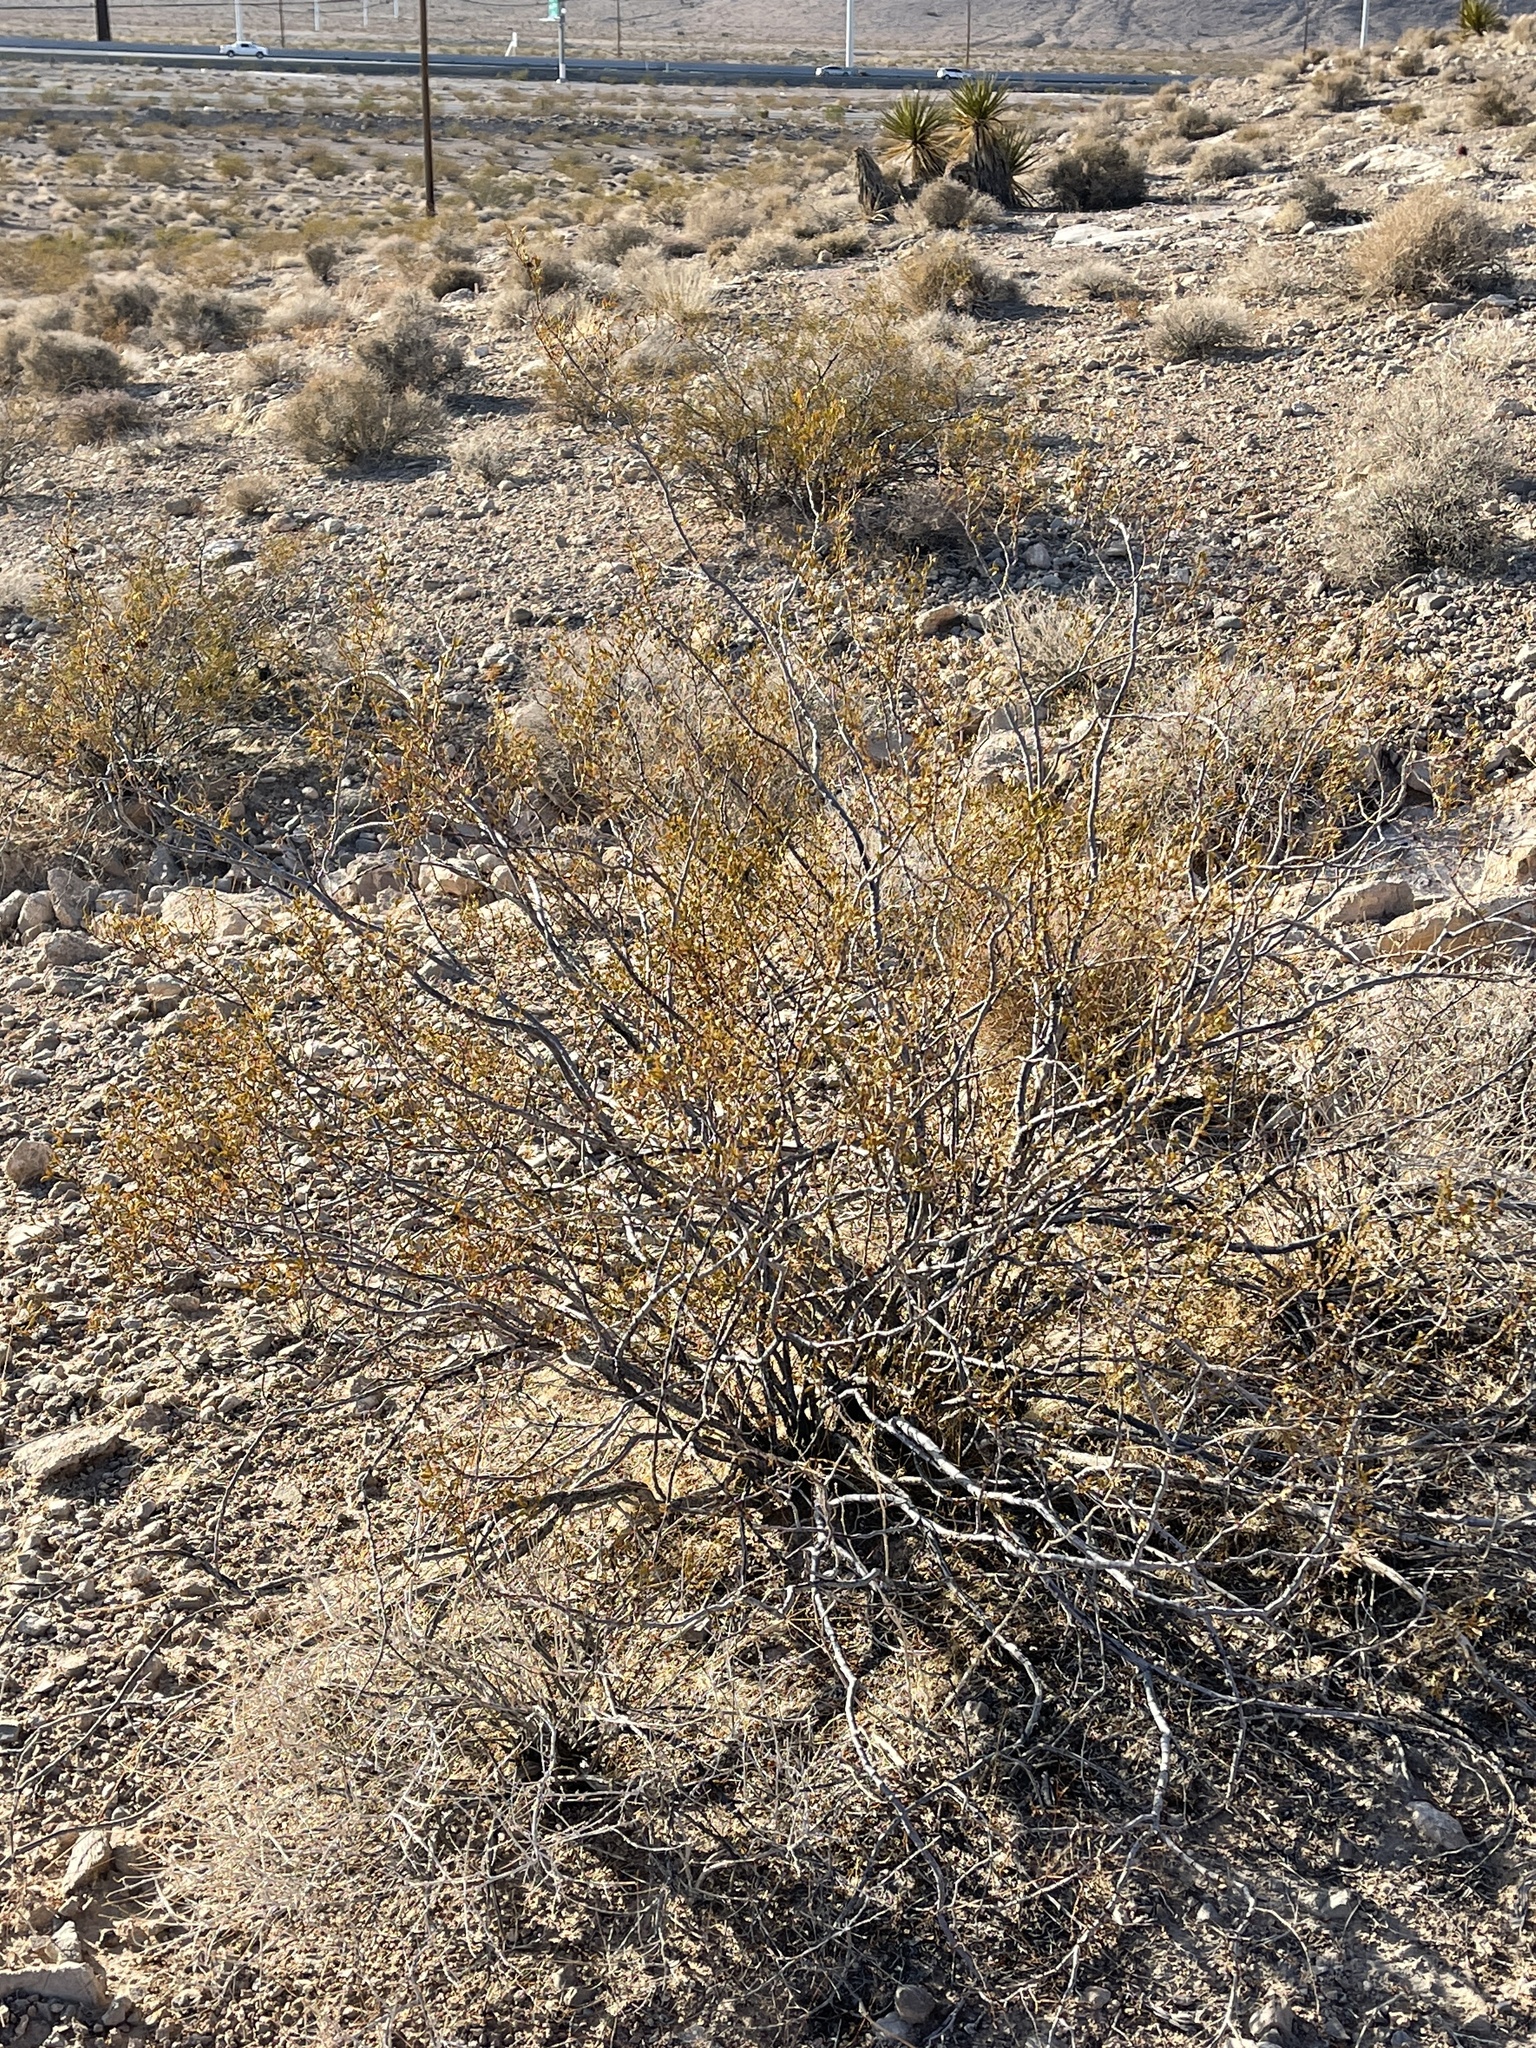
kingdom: Plantae
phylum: Tracheophyta
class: Magnoliopsida
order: Zygophyllales
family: Zygophyllaceae
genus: Larrea
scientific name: Larrea tridentata
